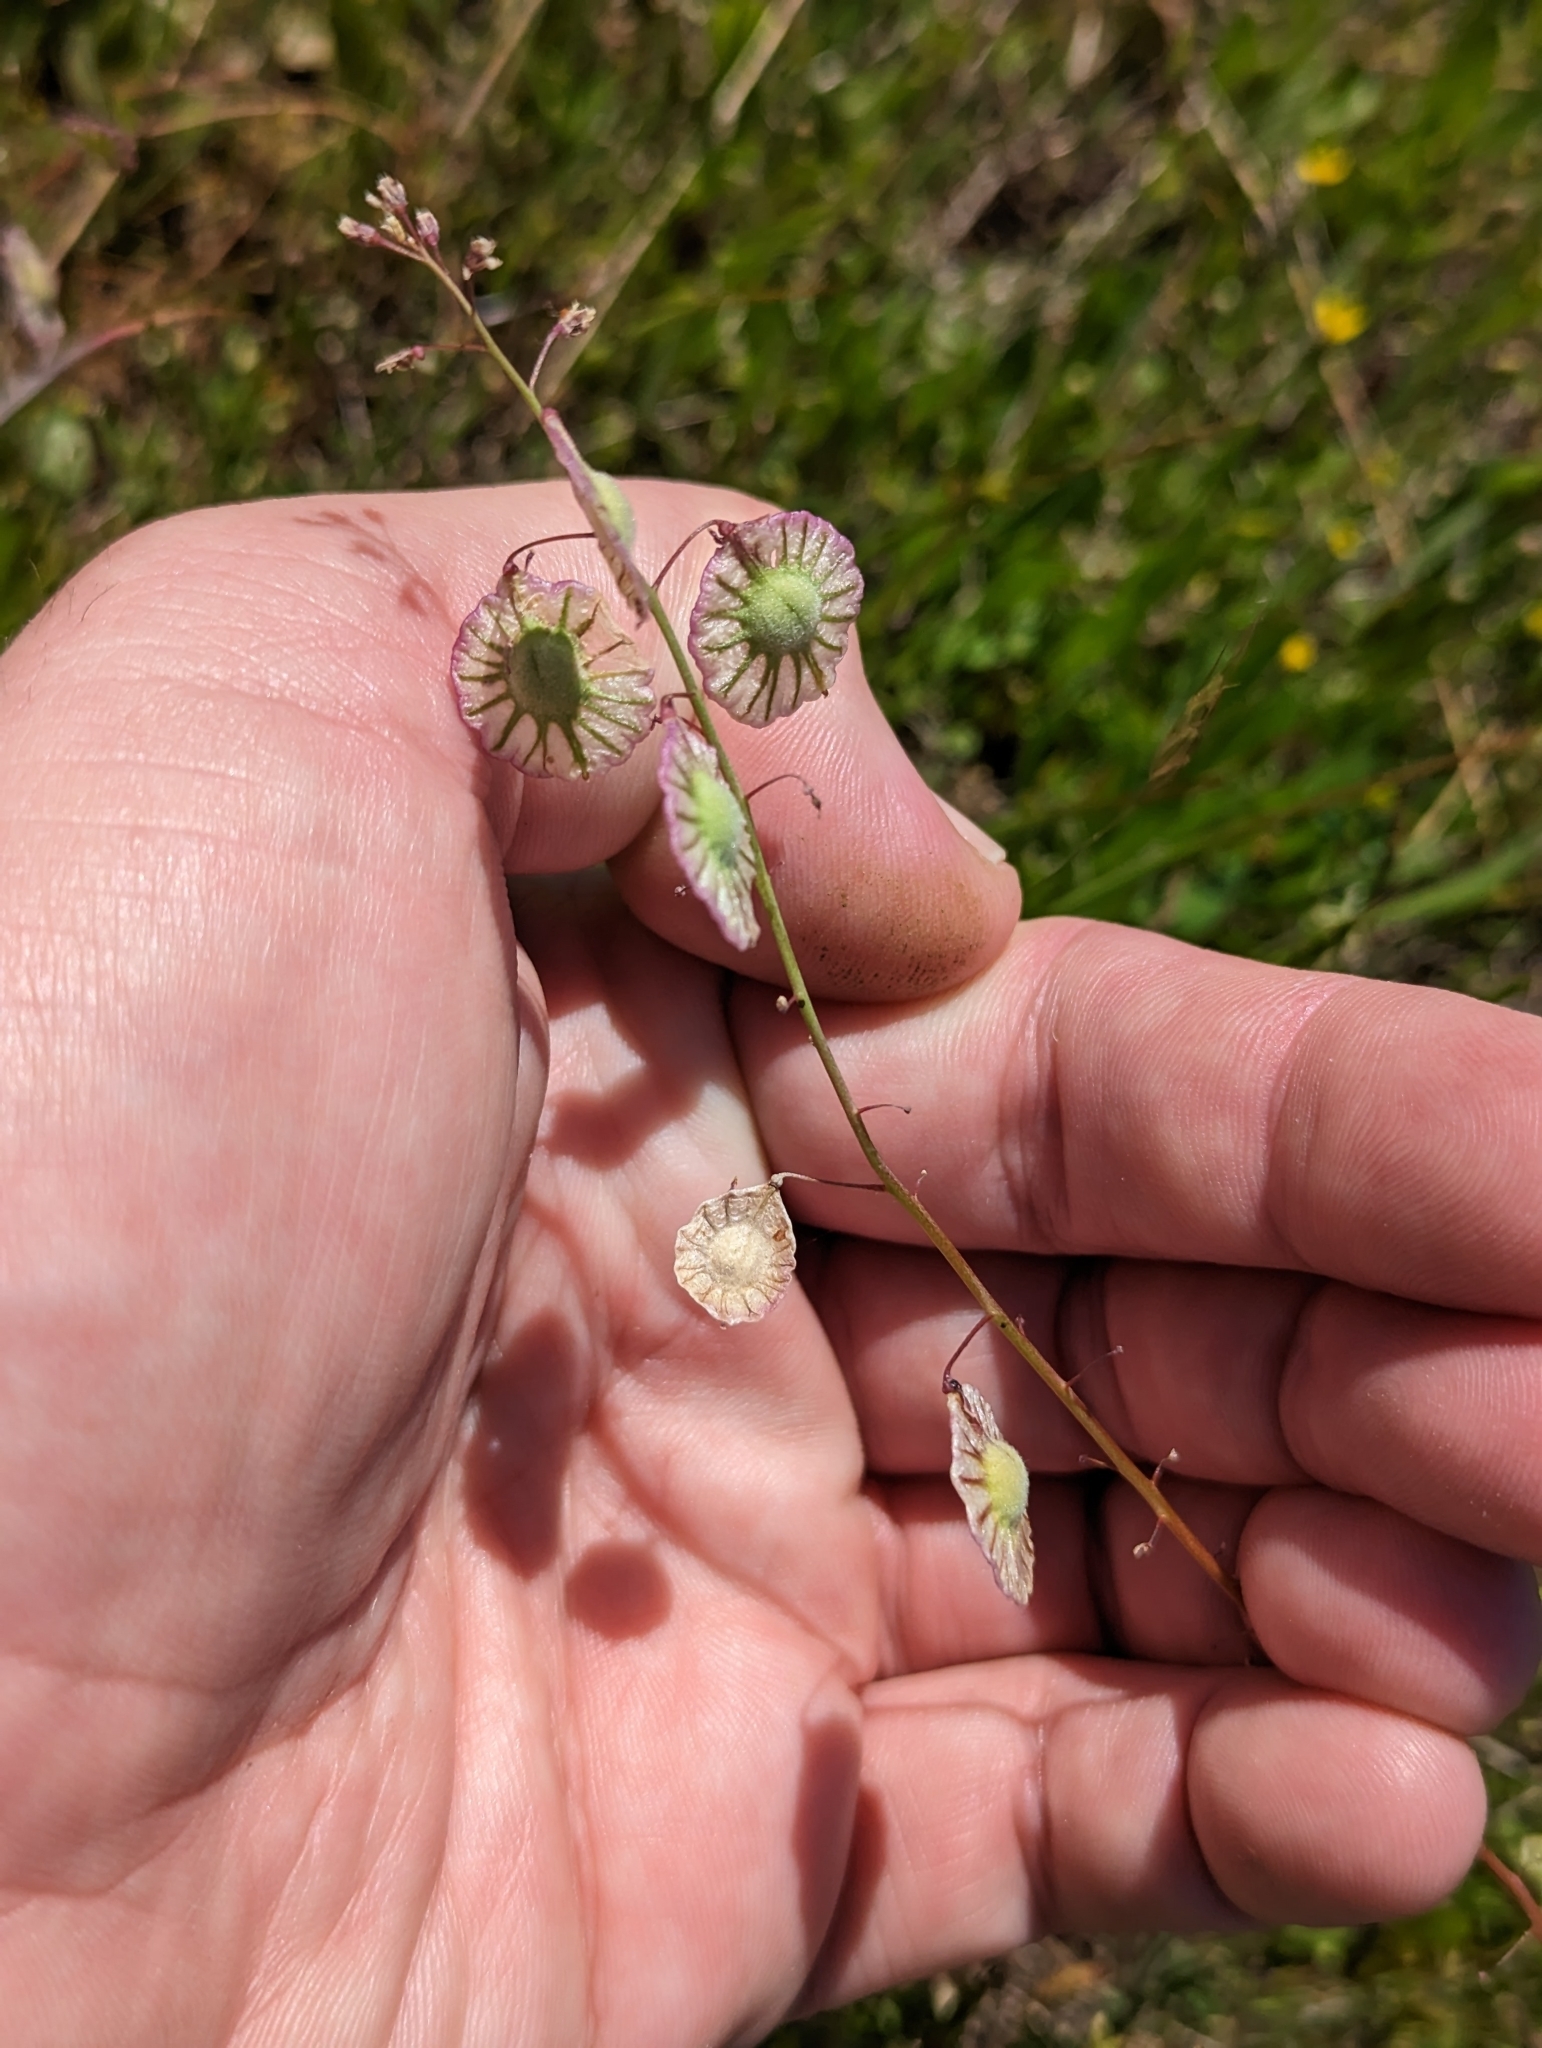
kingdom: Plantae
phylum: Tracheophyta
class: Magnoliopsida
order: Brassicales
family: Brassicaceae
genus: Thysanocarpus
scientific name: Thysanocarpus radians
